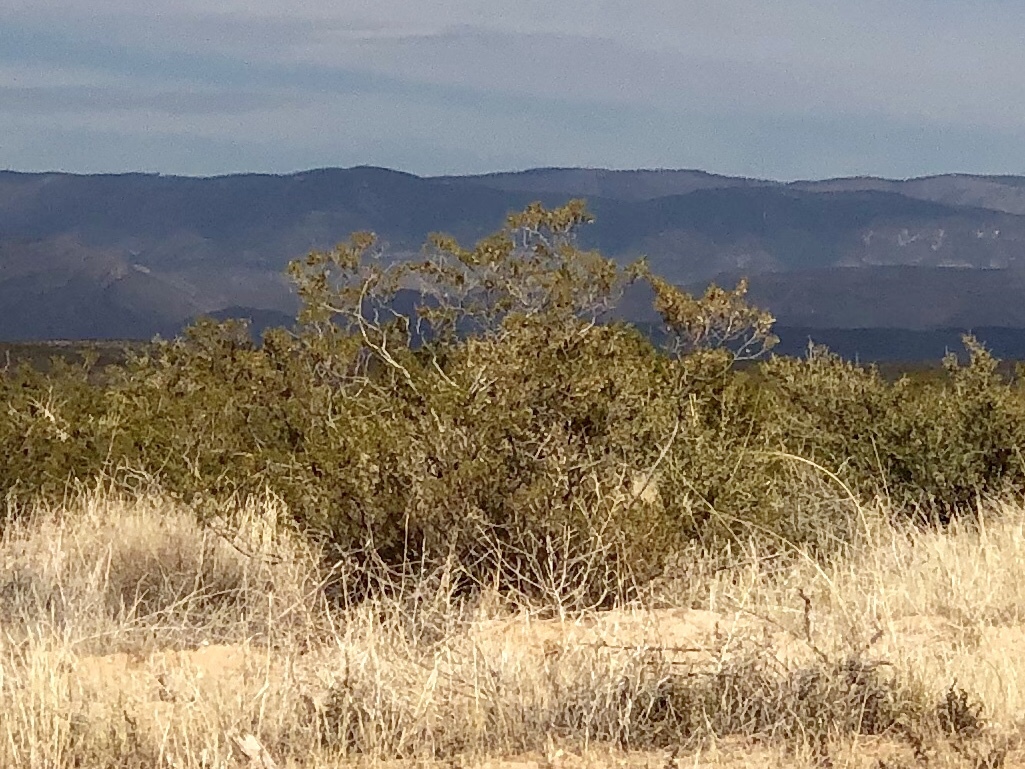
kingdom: Plantae
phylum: Tracheophyta
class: Magnoliopsida
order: Zygophyllales
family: Zygophyllaceae
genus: Larrea
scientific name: Larrea tridentata
